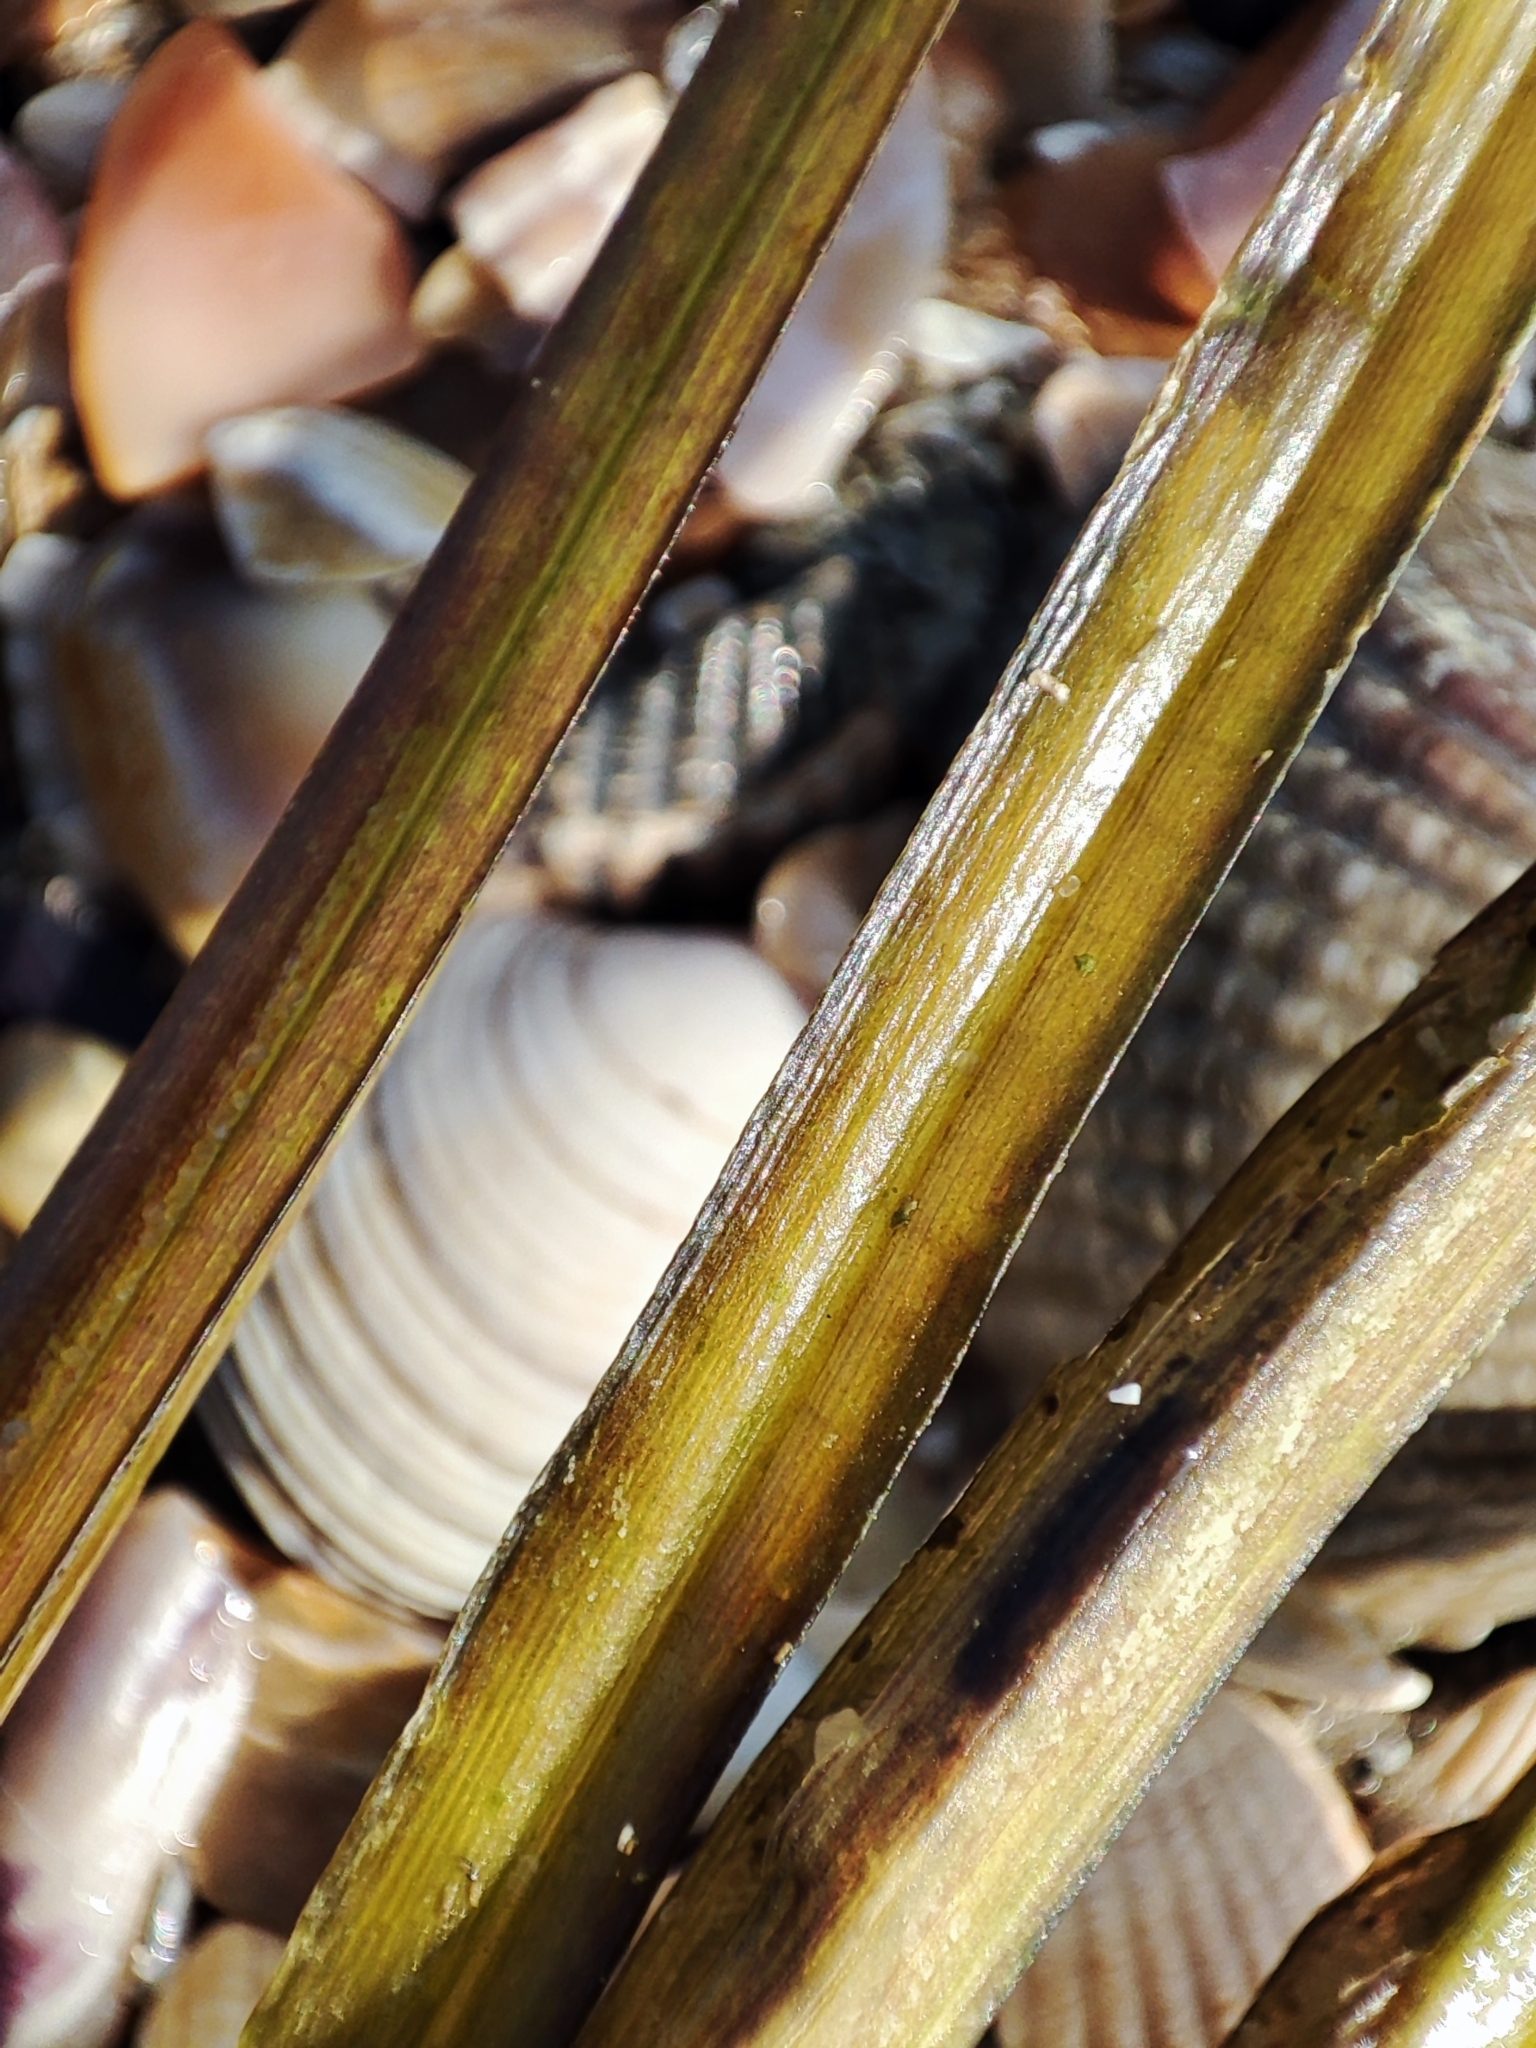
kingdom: Plantae
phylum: Tracheophyta
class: Liliopsida
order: Alismatales
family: Zosteraceae
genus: Zostera
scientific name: Zostera marina
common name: Eelgrass
